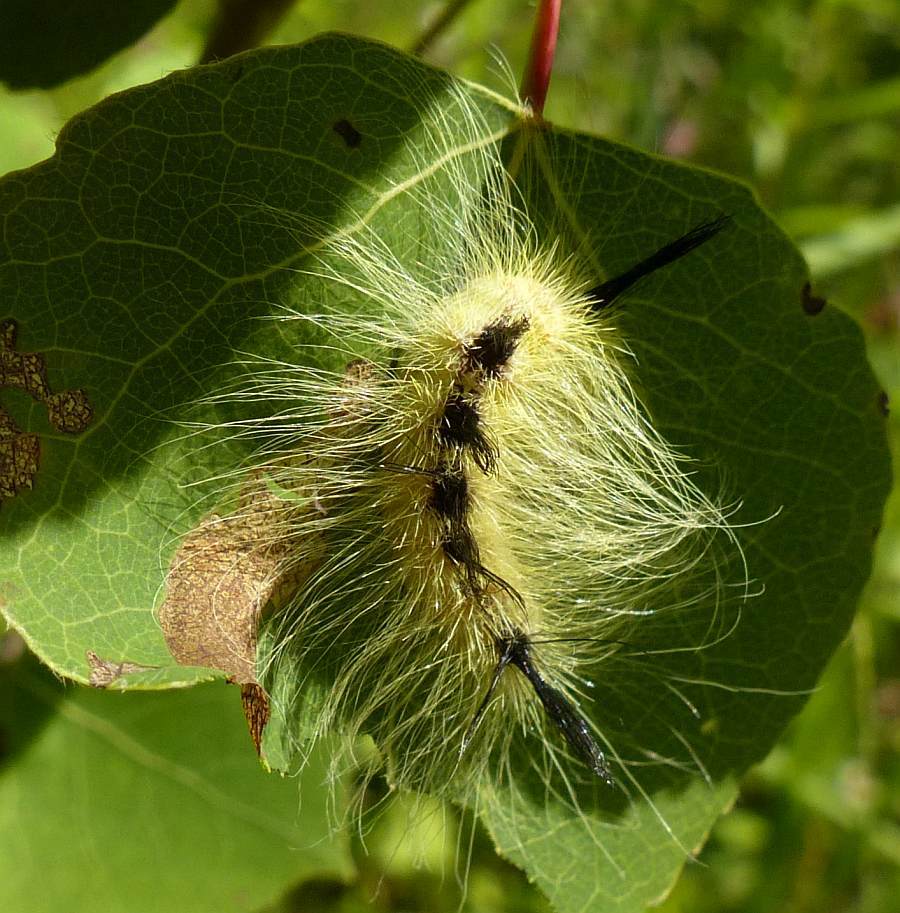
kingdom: Animalia
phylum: Arthropoda
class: Insecta
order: Lepidoptera
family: Noctuidae
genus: Acronicta
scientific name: Acronicta lepusculina
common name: Cottonwood dagger
